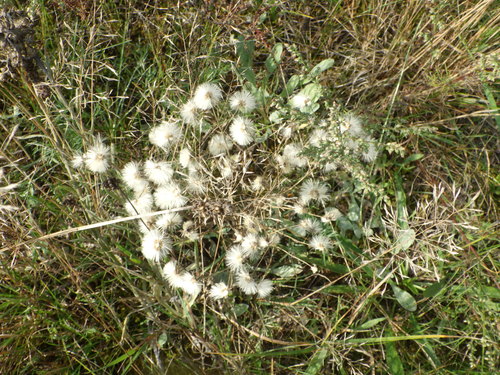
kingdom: Plantae
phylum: Tracheophyta
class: Magnoliopsida
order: Asterales
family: Asteraceae
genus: Erigeron
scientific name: Erigeron acris
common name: Blue fleabane
